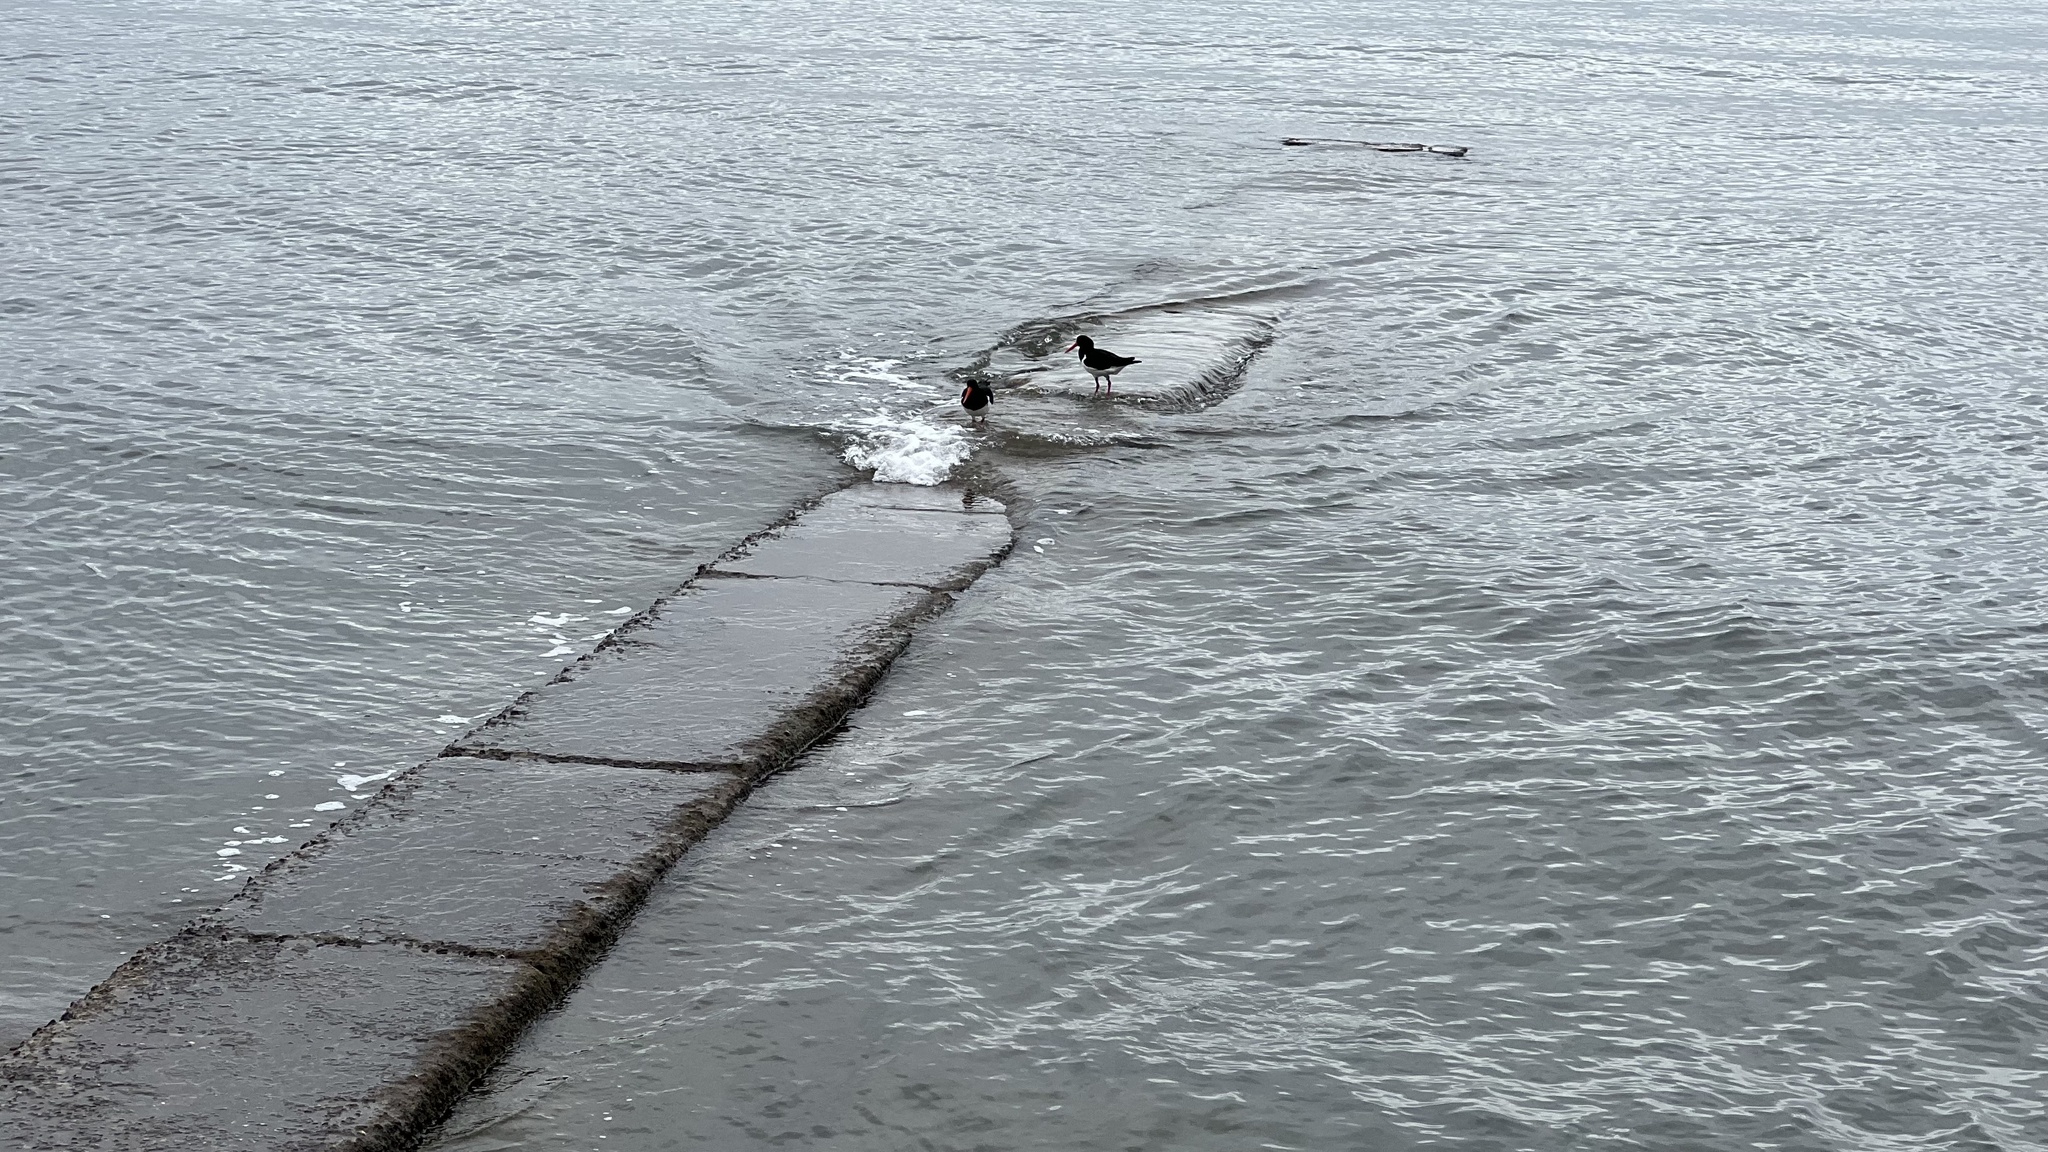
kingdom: Animalia
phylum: Chordata
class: Aves
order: Charadriiformes
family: Haematopodidae
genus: Haematopus
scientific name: Haematopus longirostris
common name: Pied oystercatcher
